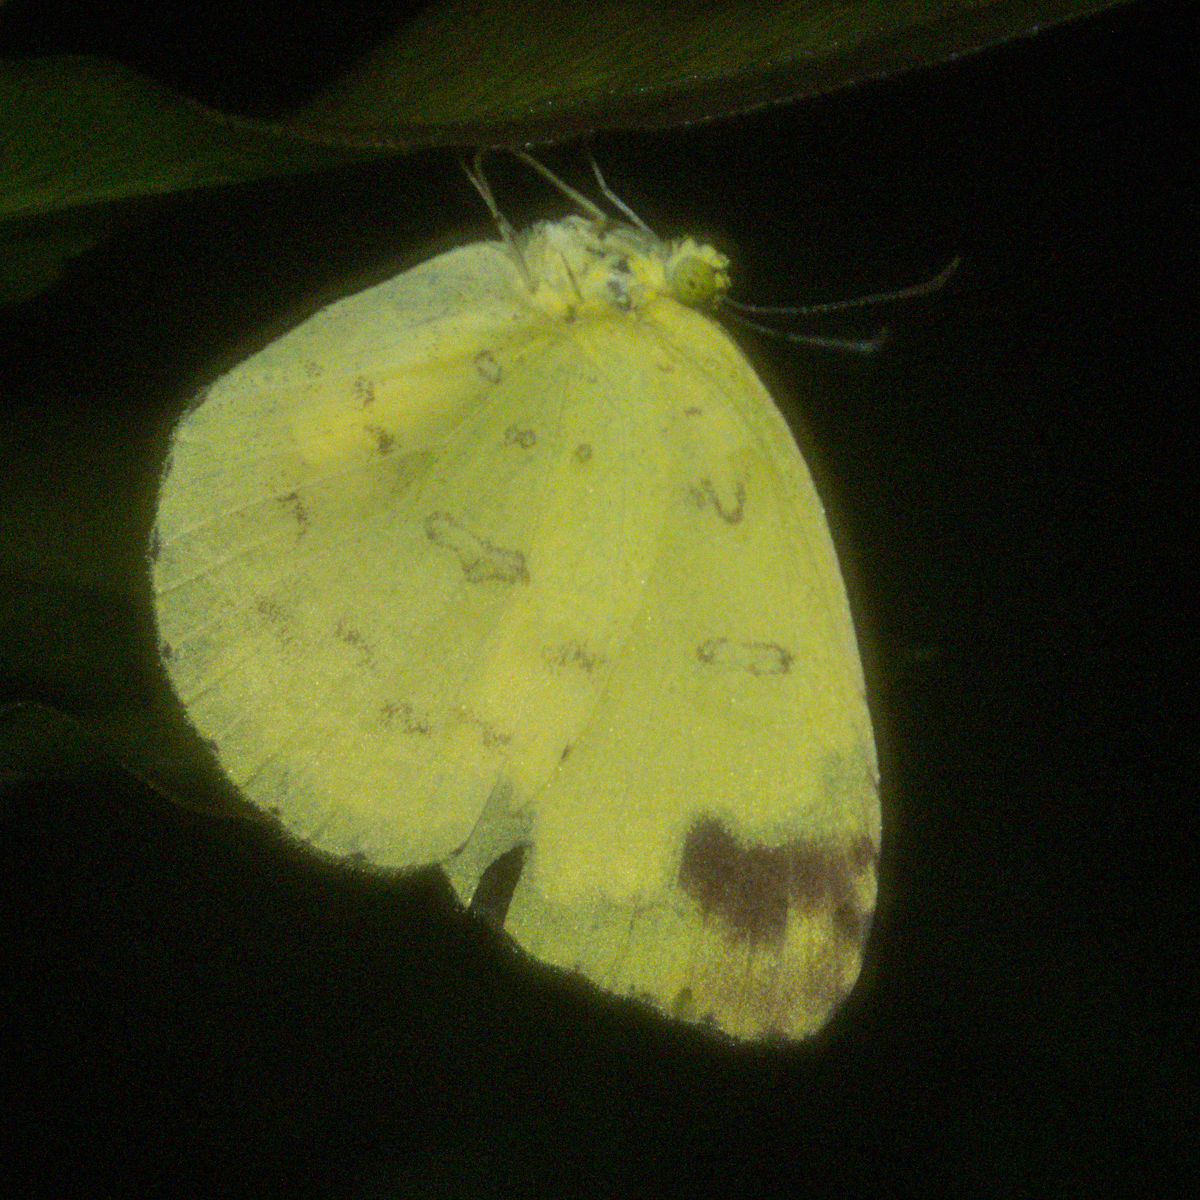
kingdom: Animalia
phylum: Arthropoda
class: Insecta
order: Lepidoptera
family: Pieridae
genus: Eurema
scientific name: Eurema blanda
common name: Three-spot grass yellow
